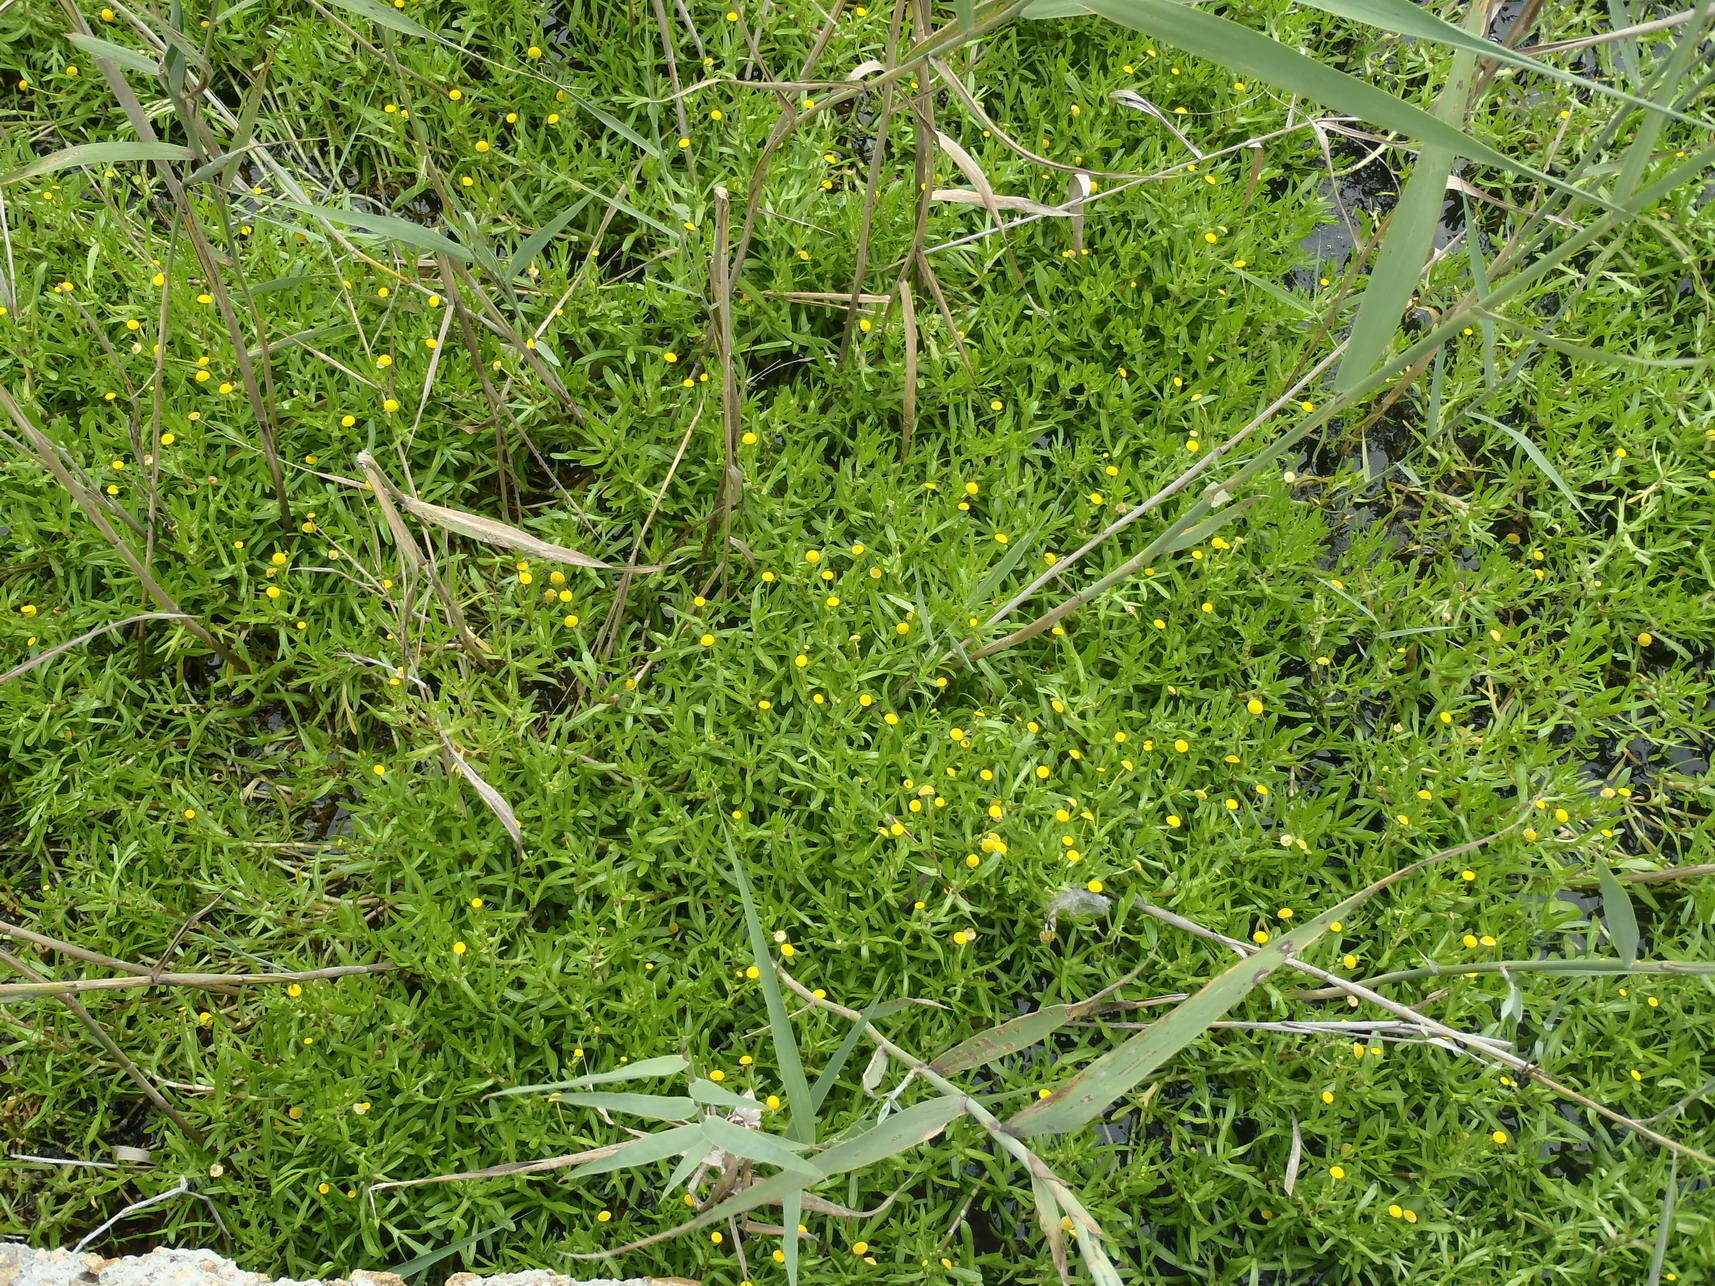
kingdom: Plantae
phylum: Tracheophyta
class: Magnoliopsida
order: Asterales
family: Asteraceae
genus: Cotula
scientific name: Cotula coronopifolia
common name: Buttonweed
